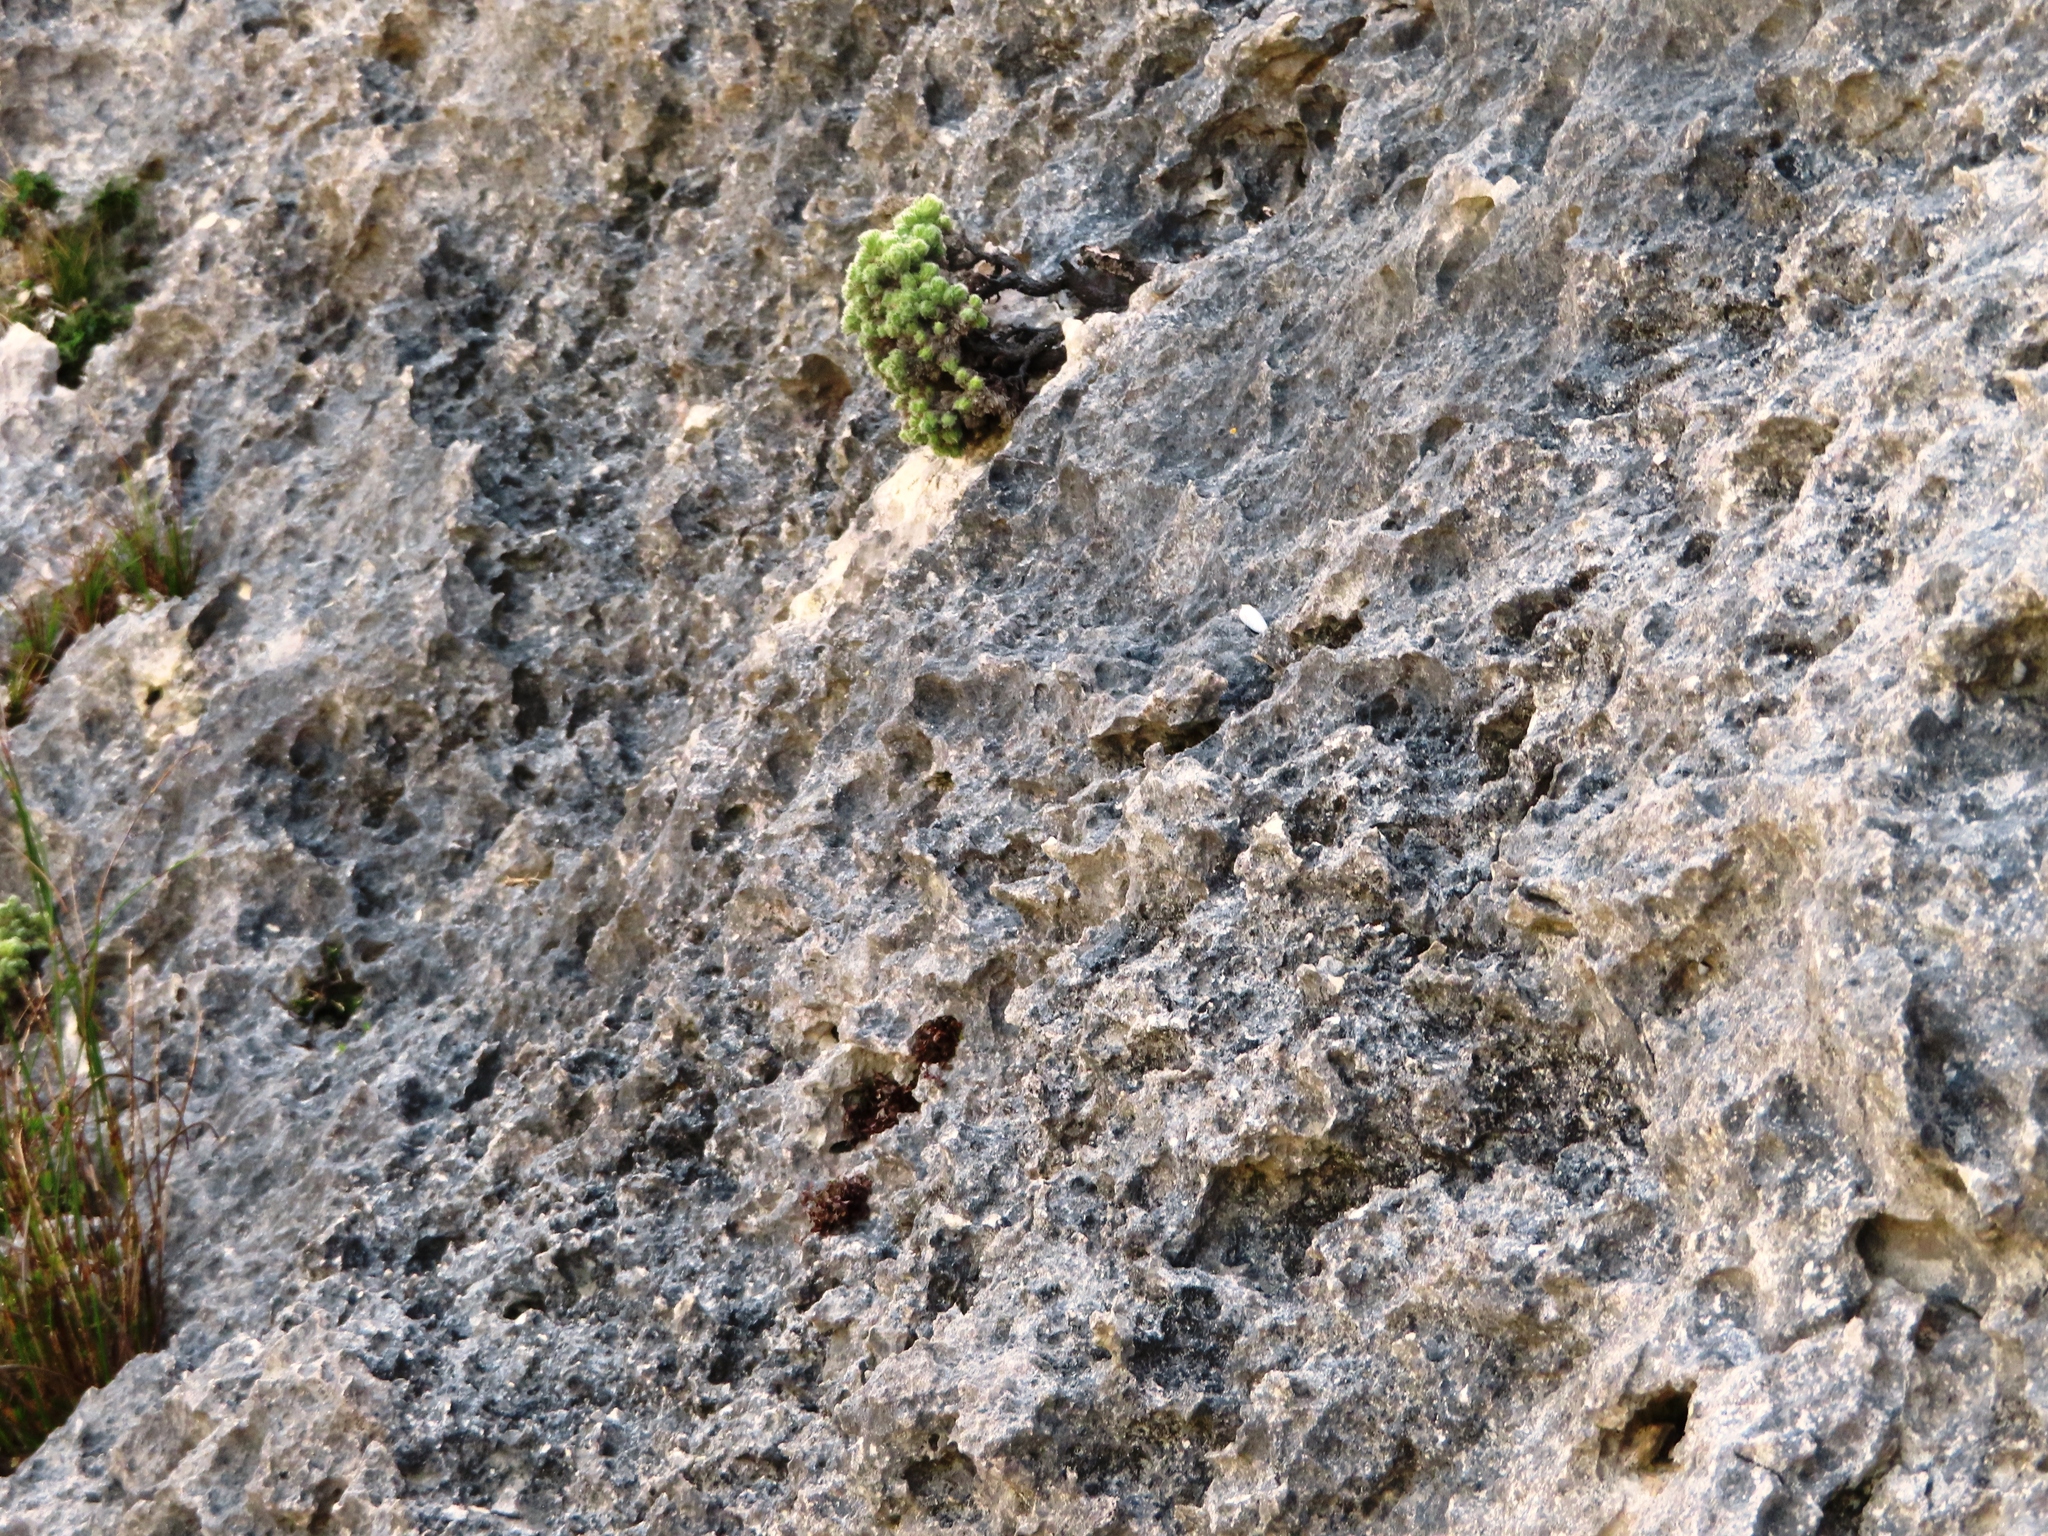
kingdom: Plantae
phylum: Tracheophyta
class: Magnoliopsida
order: Ericales
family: Ericaceae
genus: Erica
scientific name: Erica occulta
